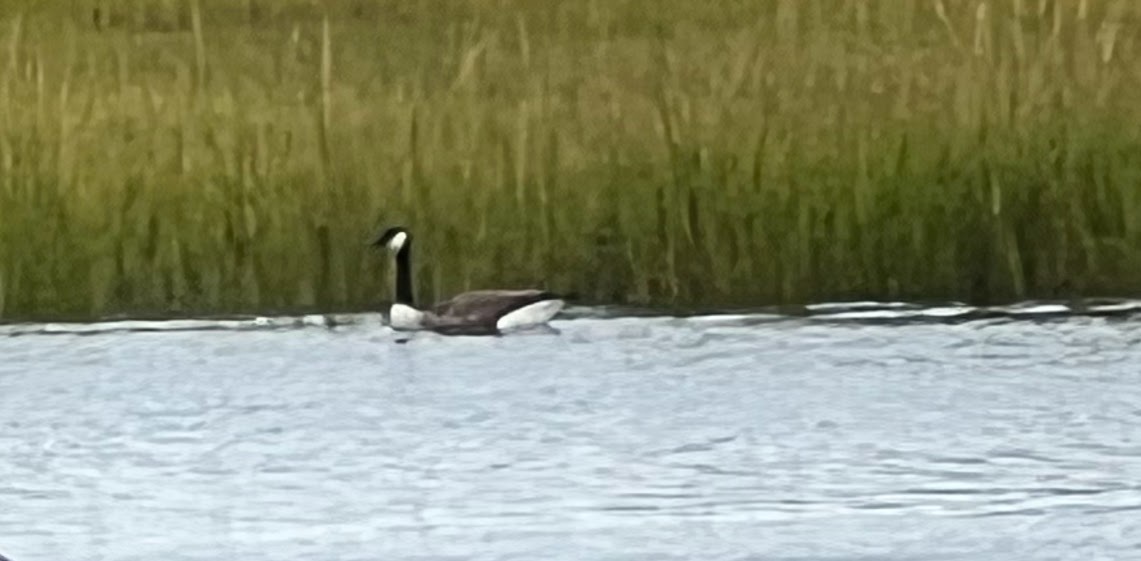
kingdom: Animalia
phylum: Chordata
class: Aves
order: Anseriformes
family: Anatidae
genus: Branta
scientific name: Branta canadensis
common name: Canada goose
